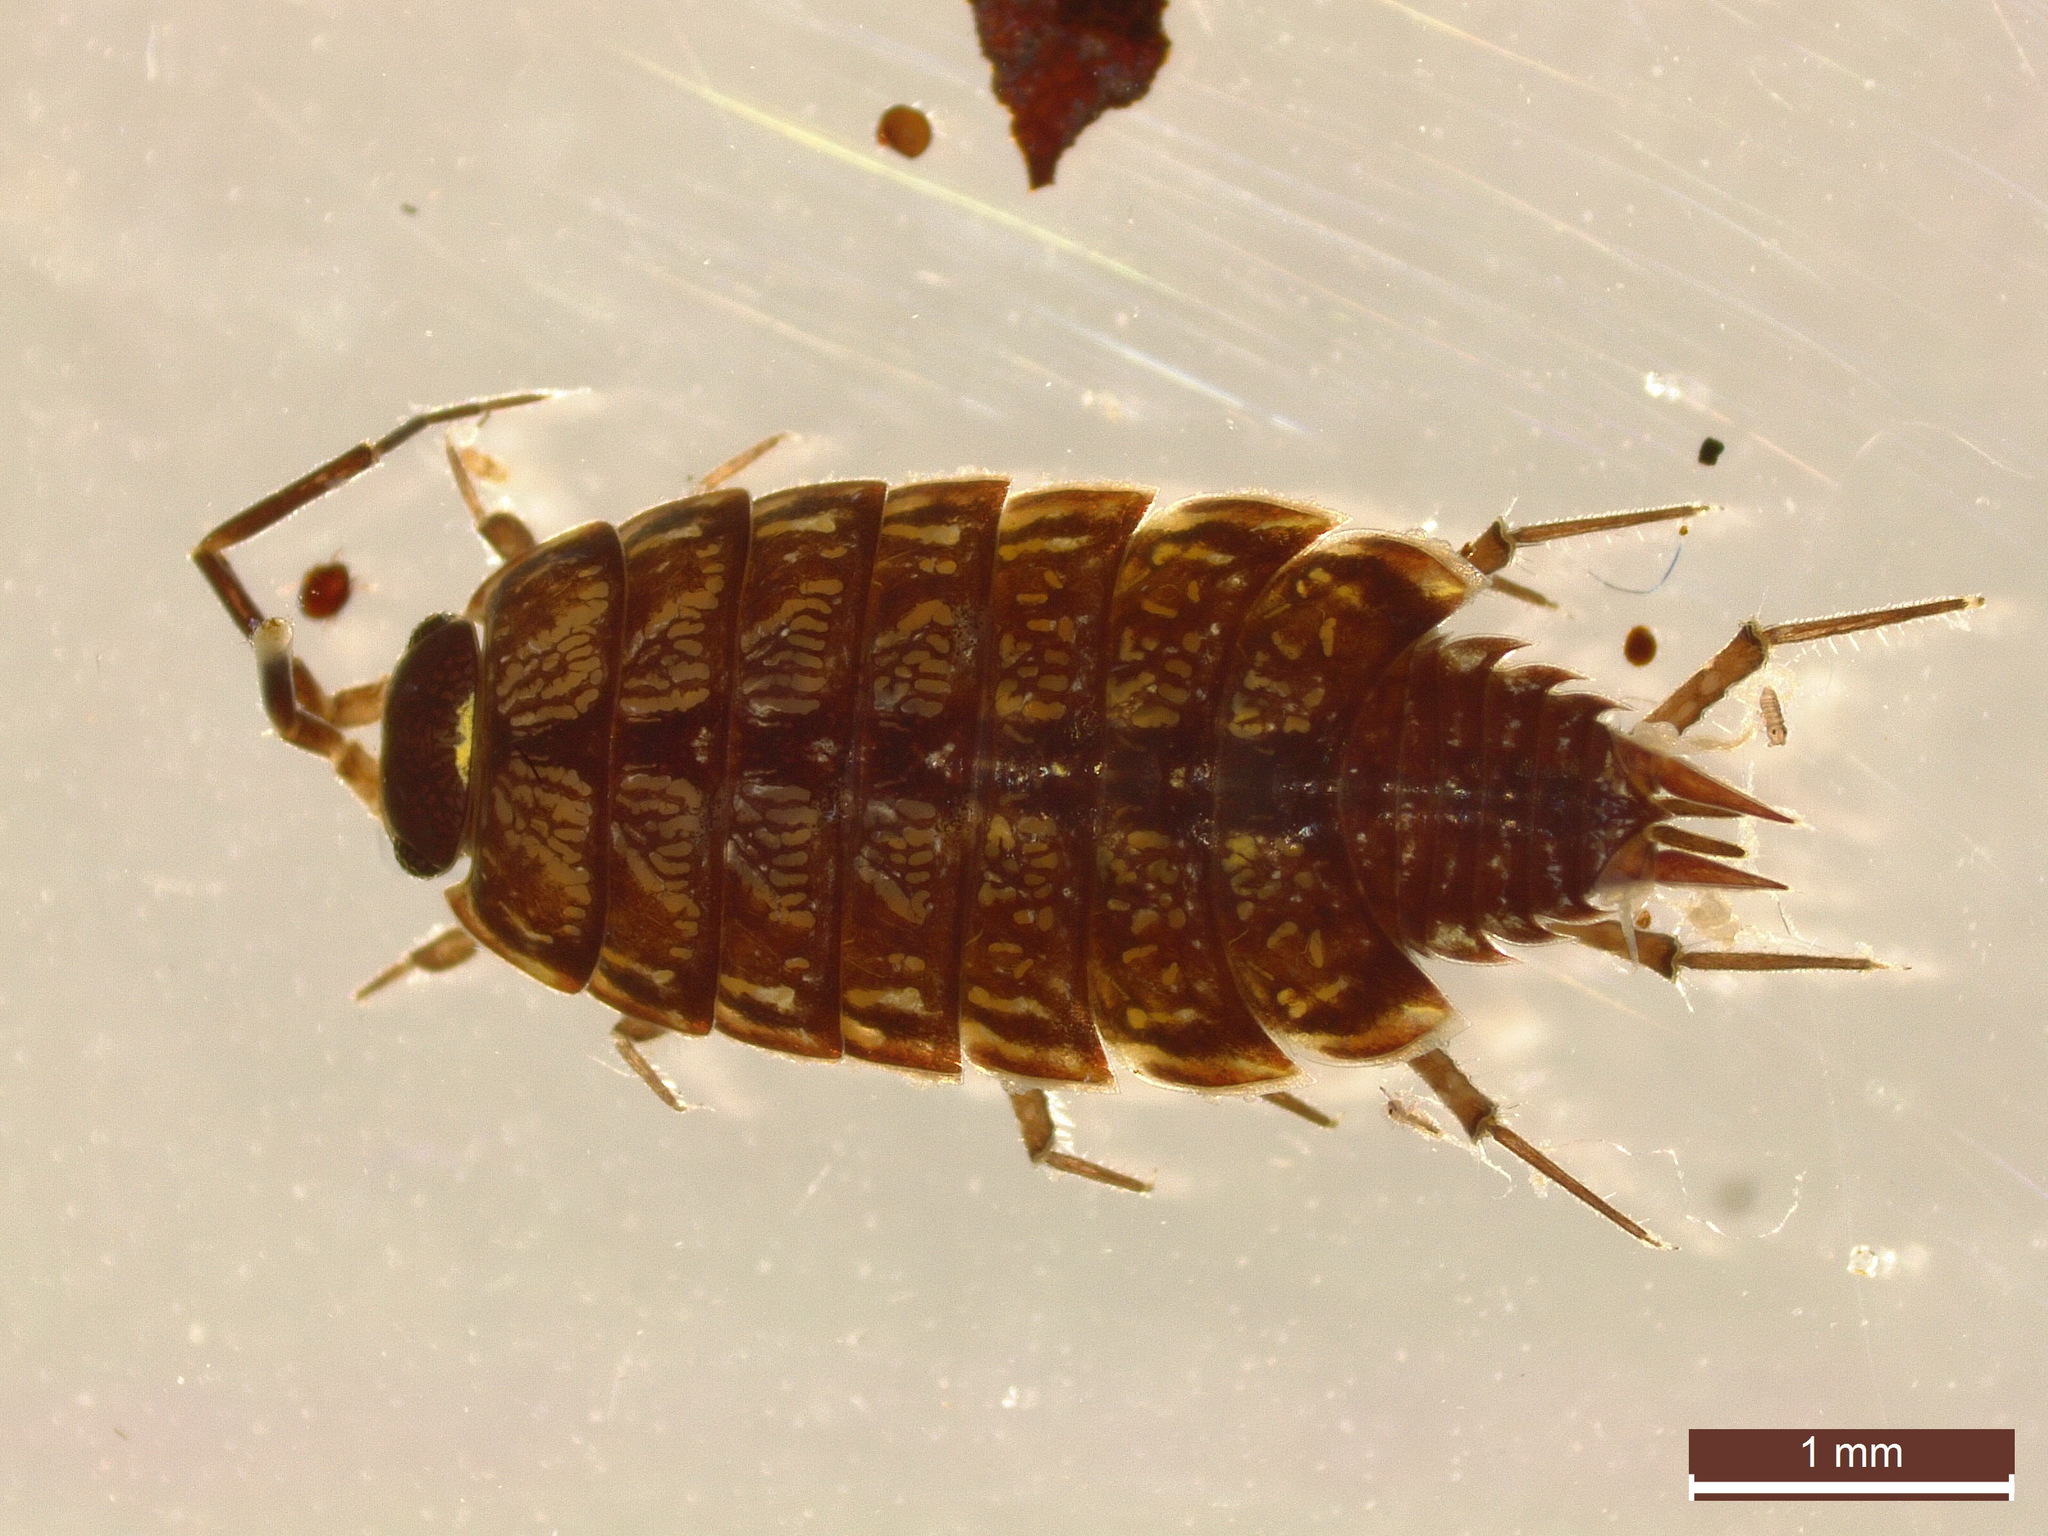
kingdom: Animalia
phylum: Arthropoda
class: Malacostraca
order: Isopoda
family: Philosciidae
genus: Philoscia
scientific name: Philoscia muscorum
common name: Common striped woodlouse
